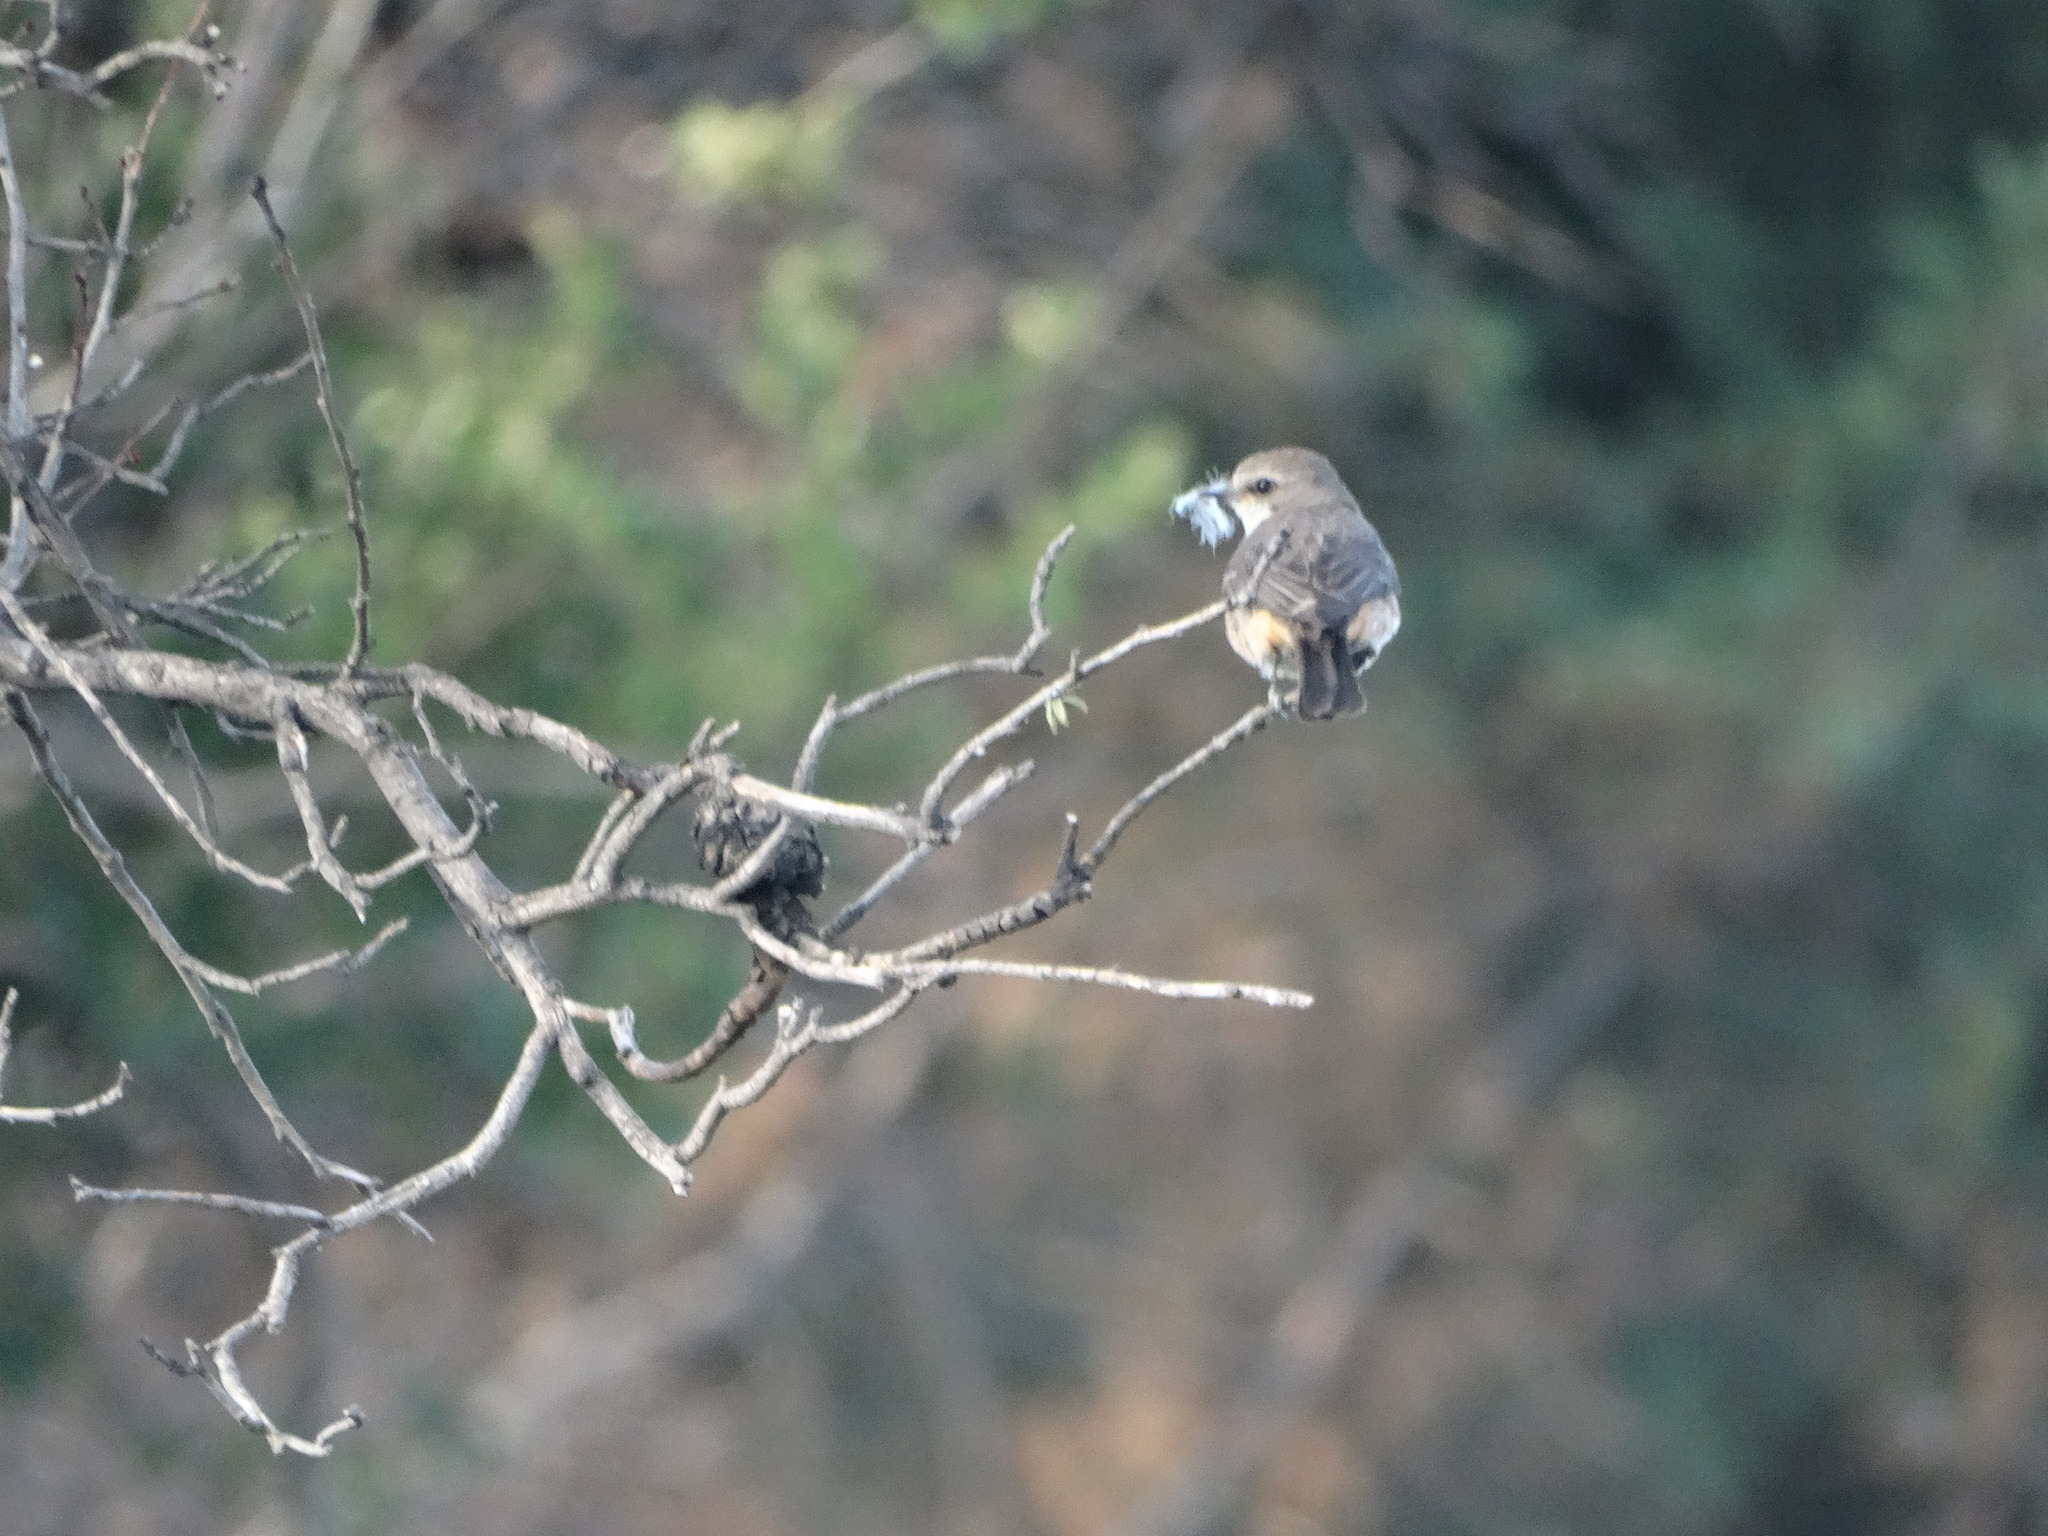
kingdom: Animalia
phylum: Chordata
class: Aves
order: Passeriformes
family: Tyrannidae
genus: Pyrocephalus
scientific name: Pyrocephalus rubinus
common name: Vermilion flycatcher
